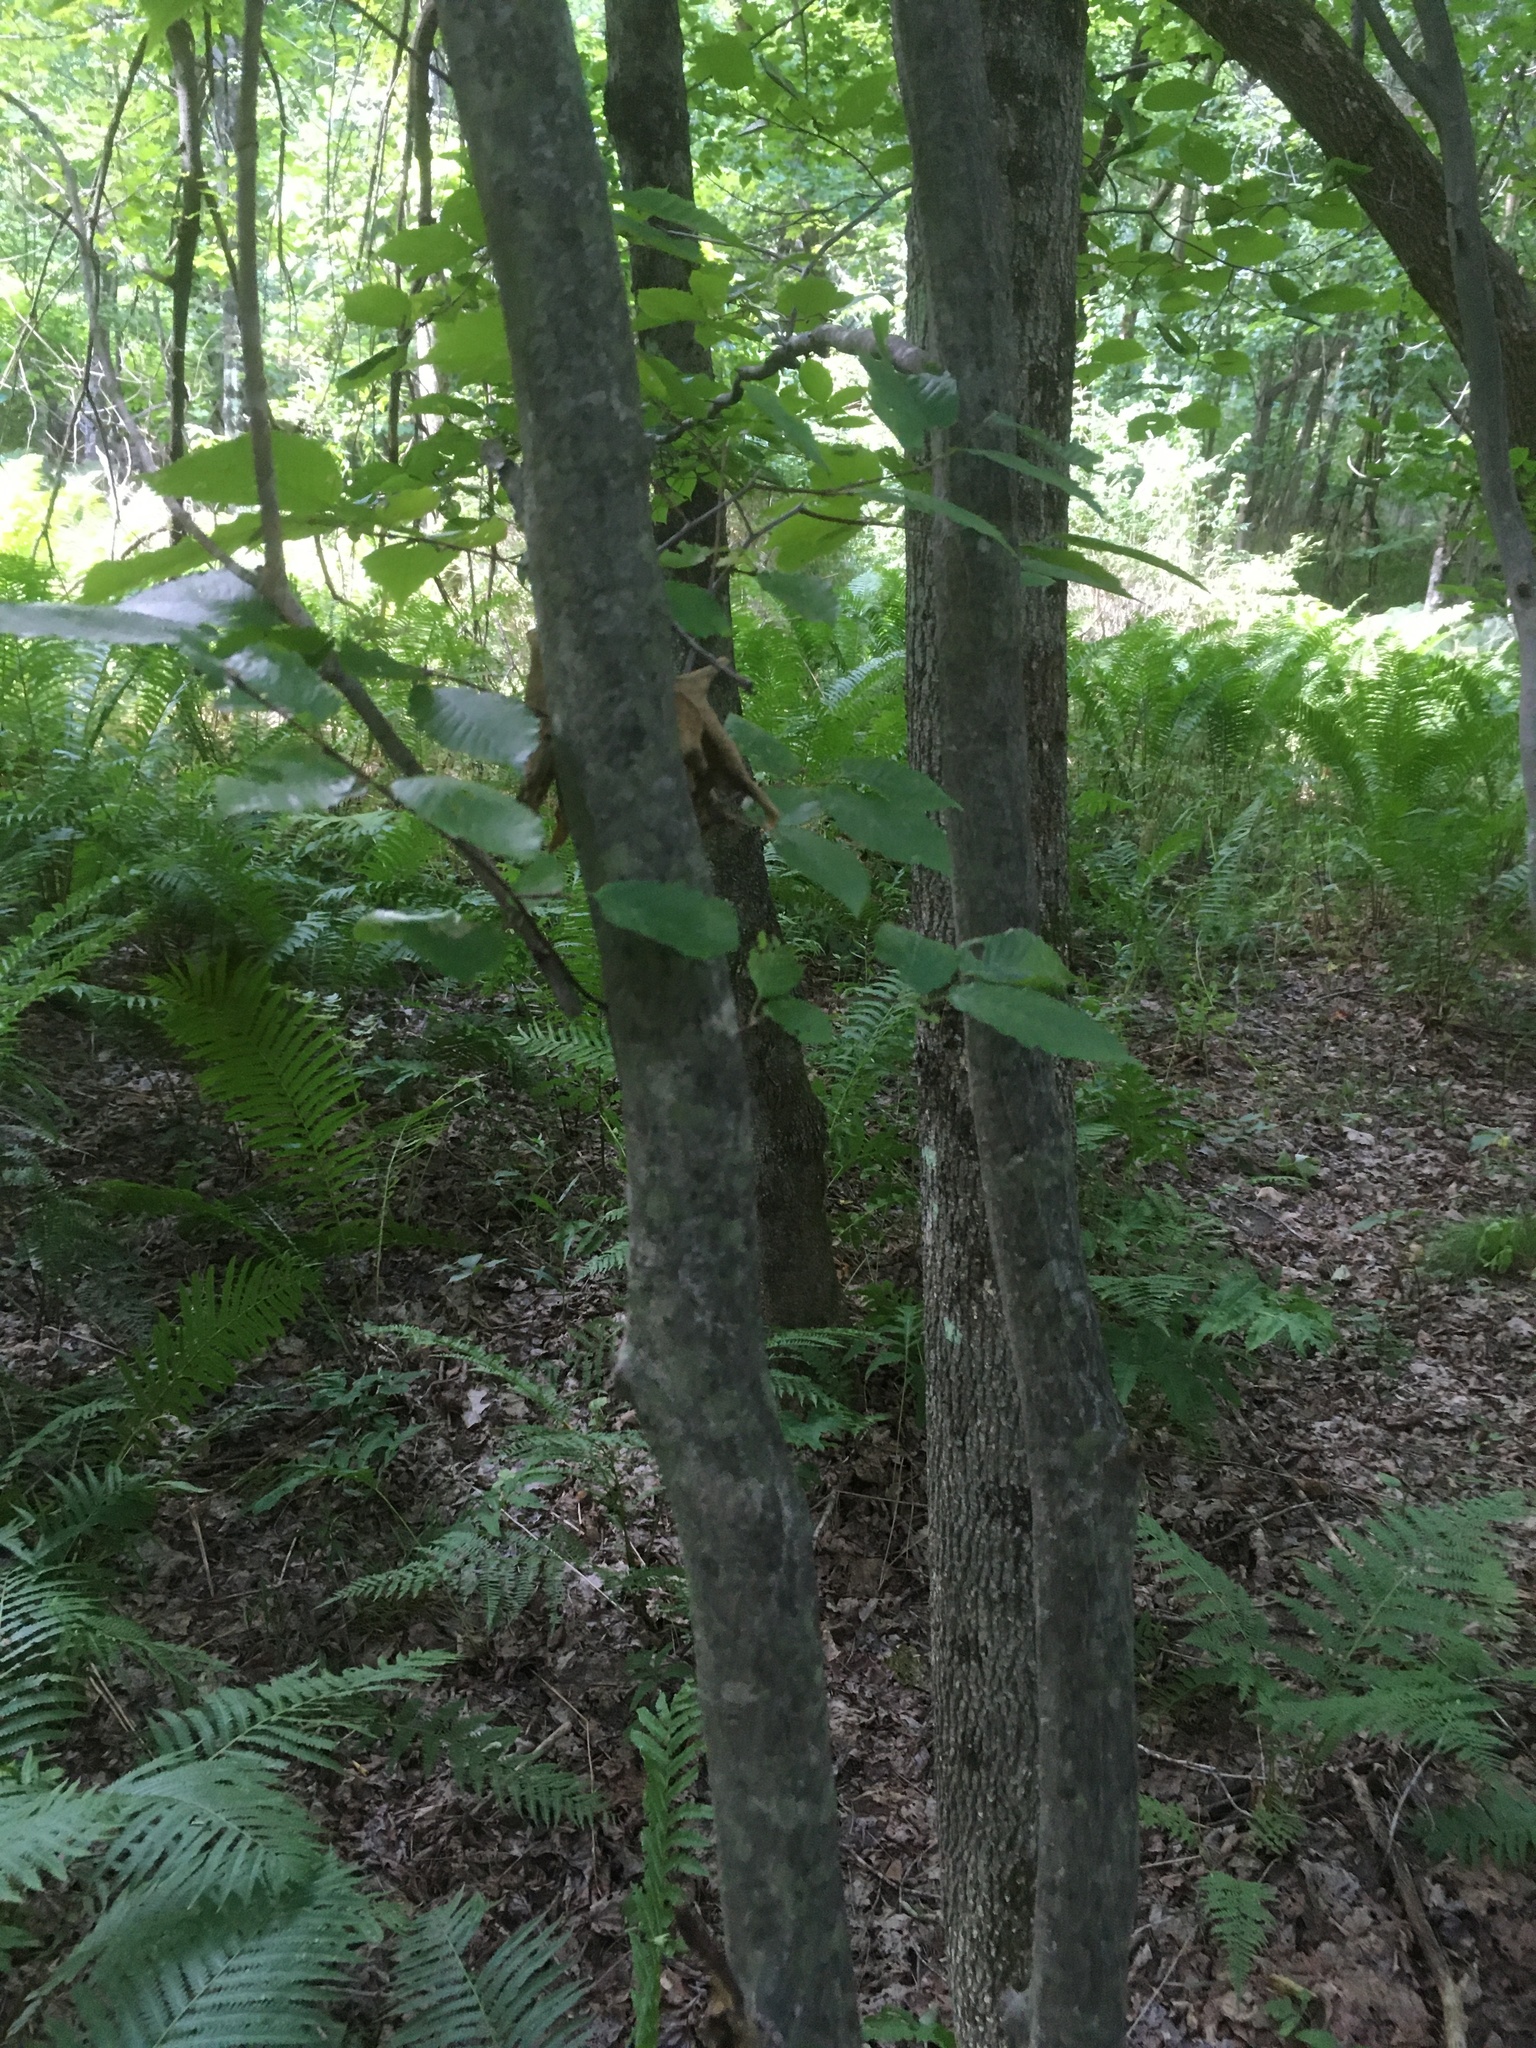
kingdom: Plantae
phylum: Tracheophyta
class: Magnoliopsida
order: Fagales
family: Betulaceae
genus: Carpinus
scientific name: Carpinus caroliniana
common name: American hornbeam
